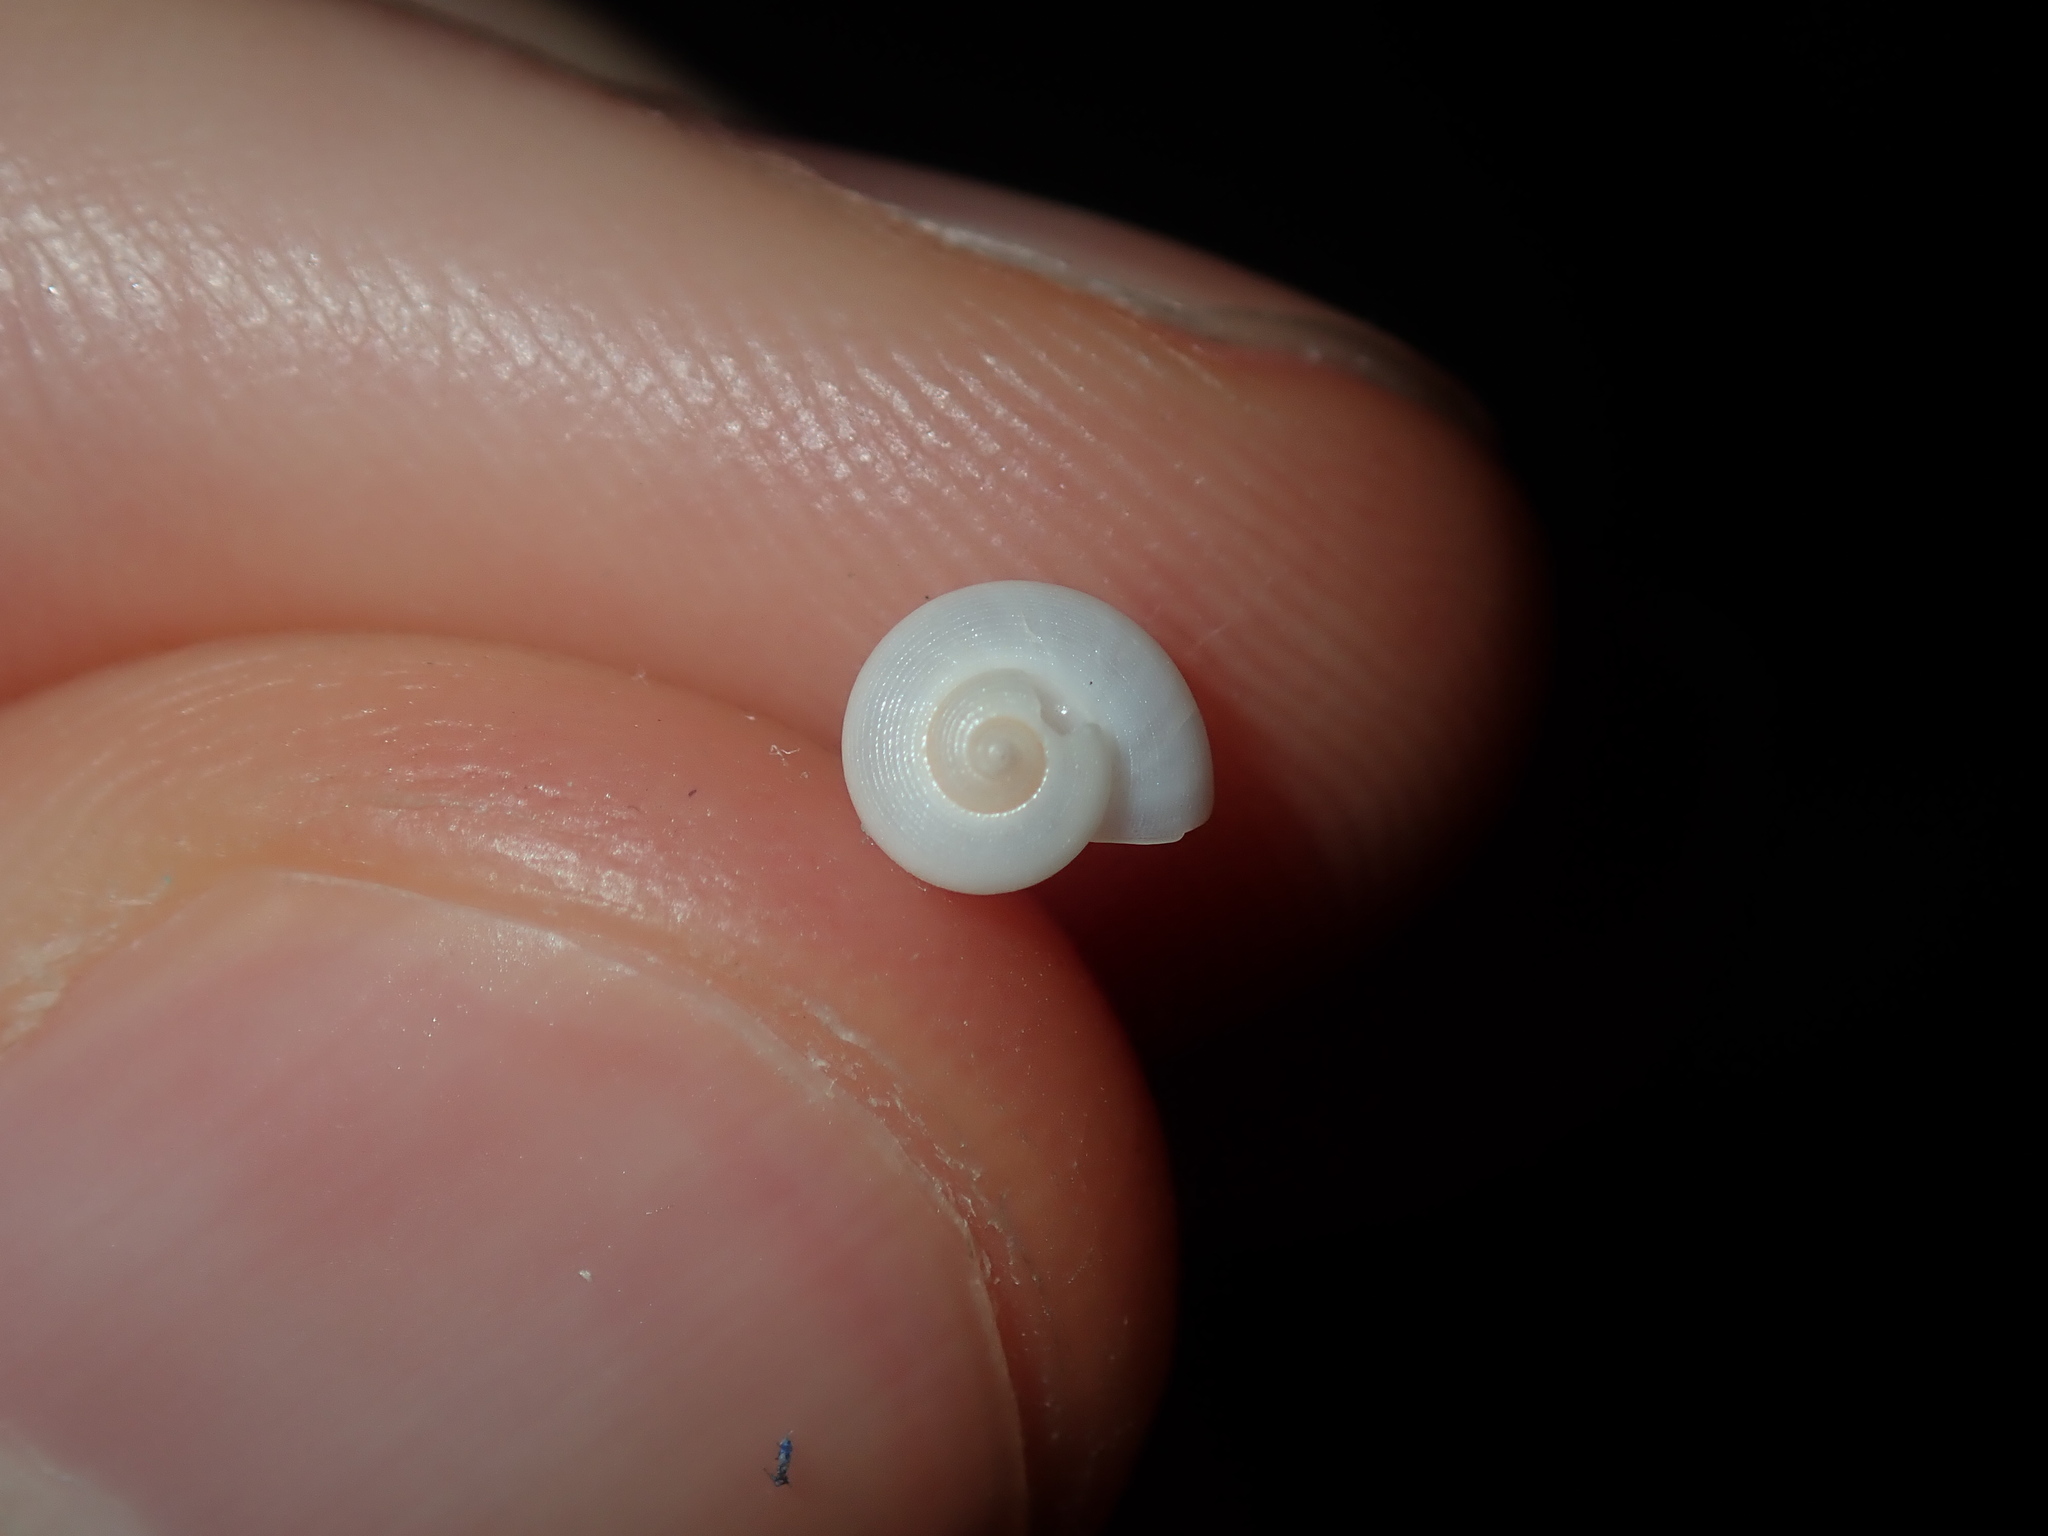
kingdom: Animalia
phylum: Mollusca
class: Gastropoda
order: Trochida
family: Conradiidae
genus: Crosseola
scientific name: Crosseola concinna
